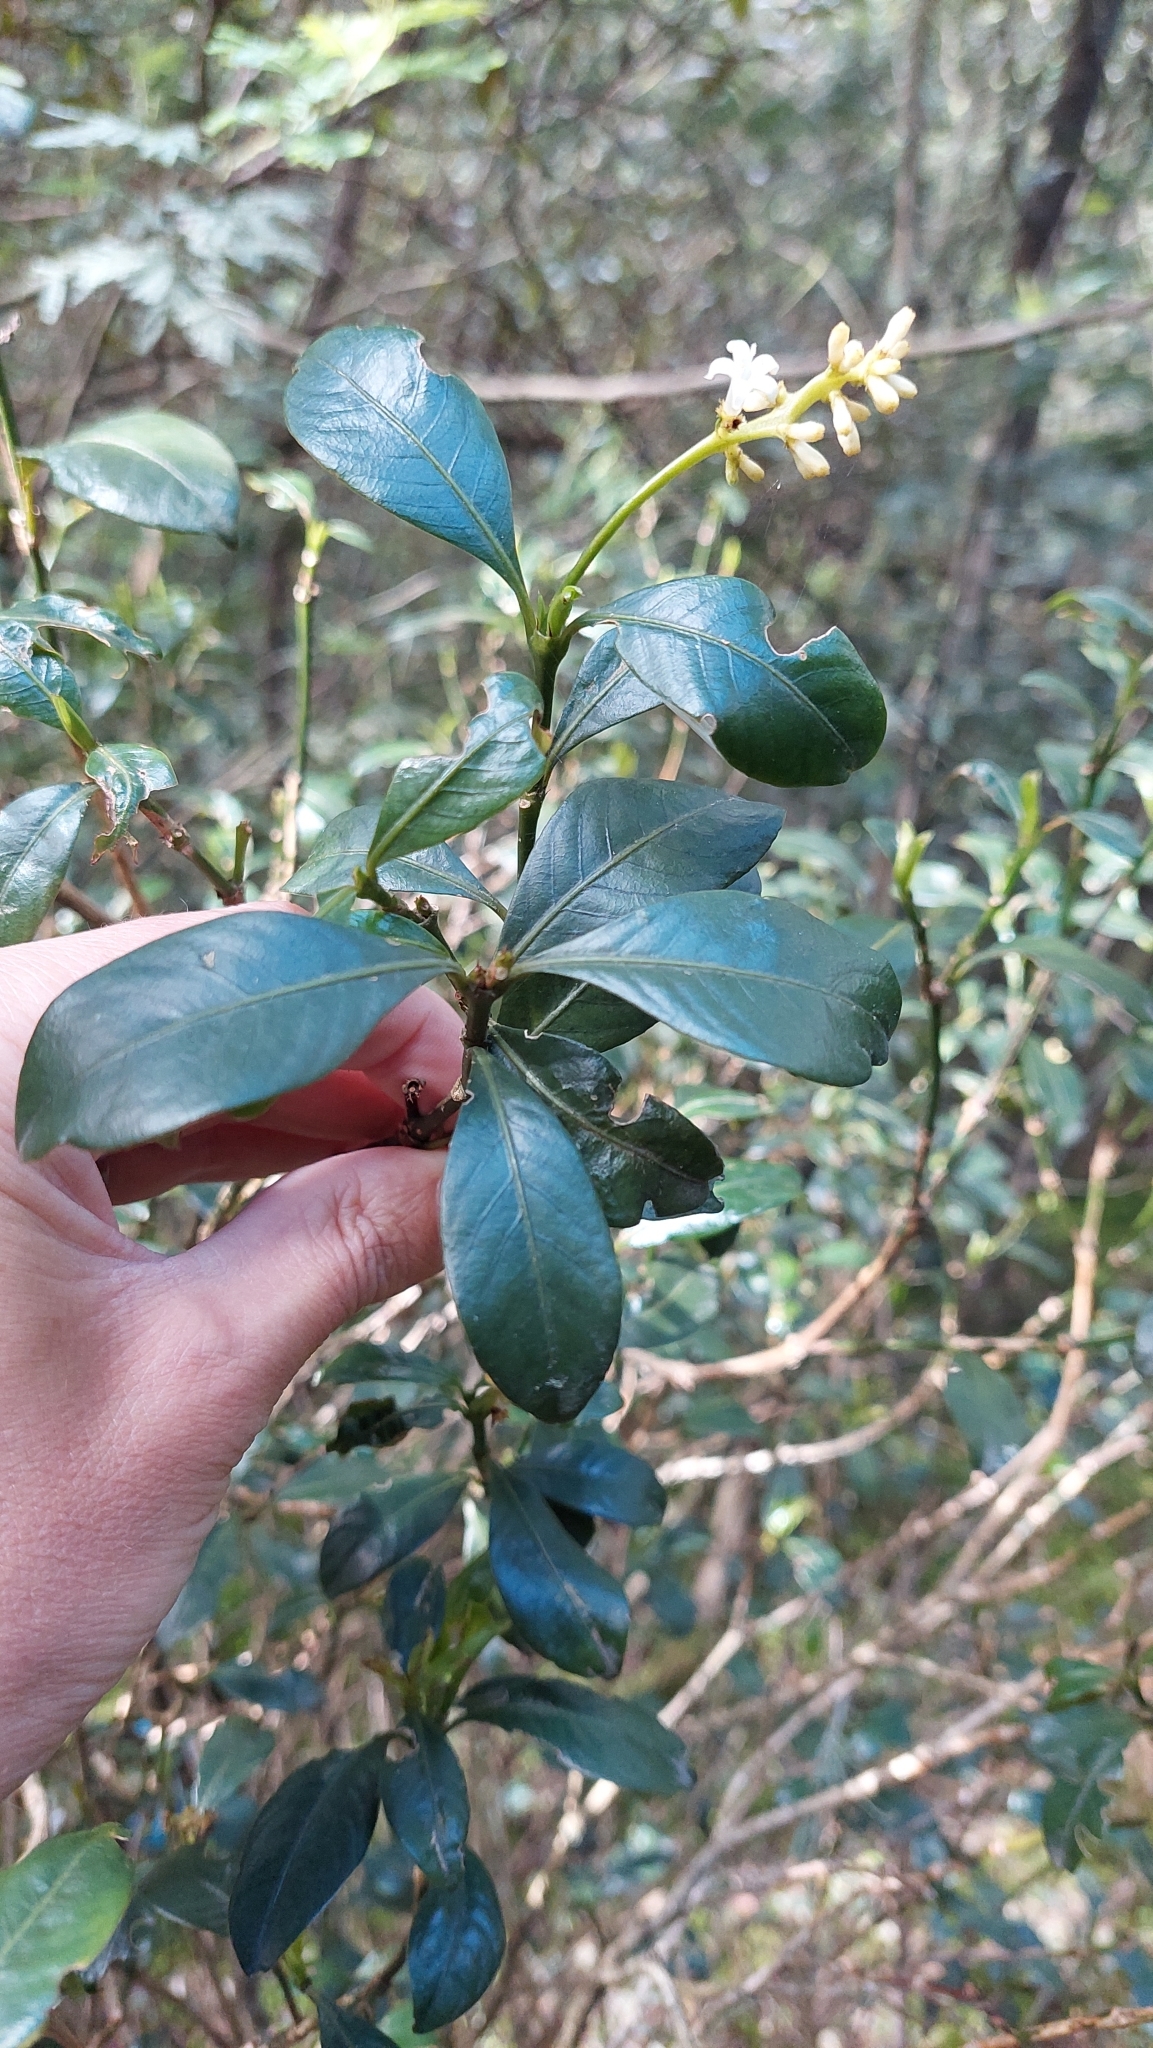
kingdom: Plantae
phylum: Tracheophyta
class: Magnoliopsida
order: Gentianales
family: Rubiaceae
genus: Palicourea
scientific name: Palicourea boqueronensis
